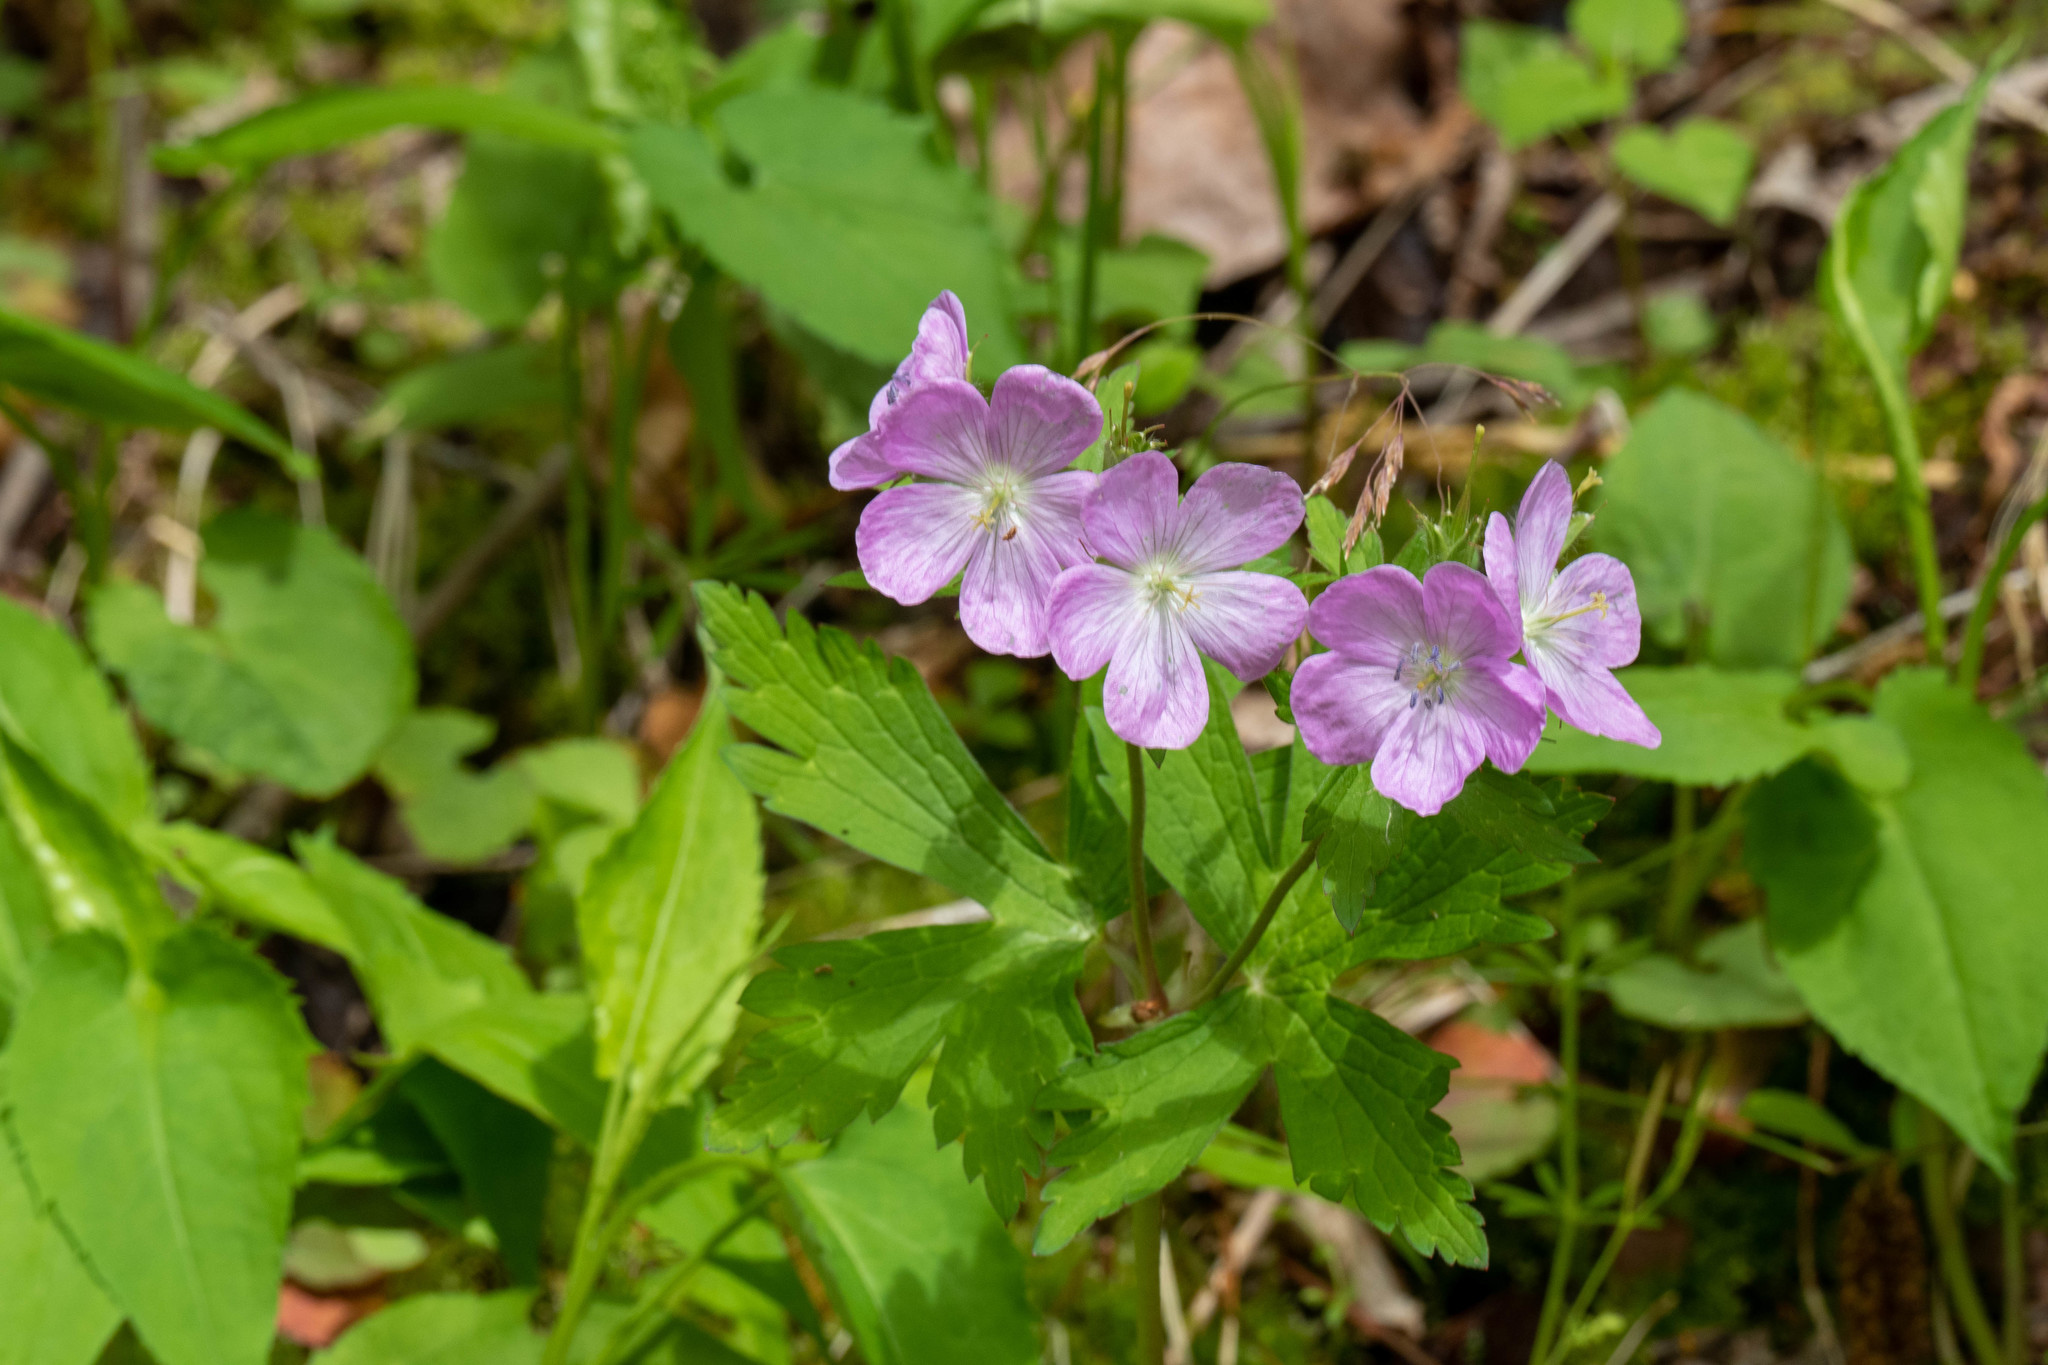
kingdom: Plantae
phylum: Tracheophyta
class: Magnoliopsida
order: Geraniales
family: Geraniaceae
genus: Geranium
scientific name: Geranium maculatum
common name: Spotted geranium
